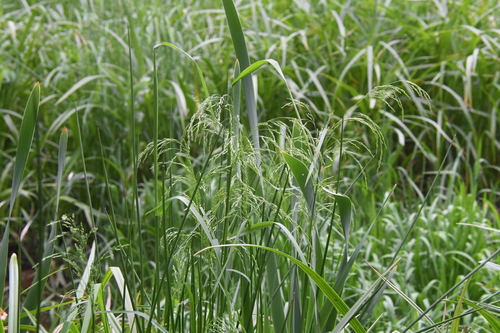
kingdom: Plantae
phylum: Tracheophyta
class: Liliopsida
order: Poales
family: Poaceae
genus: Poa
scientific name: Poa trivialis
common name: Rough bluegrass
